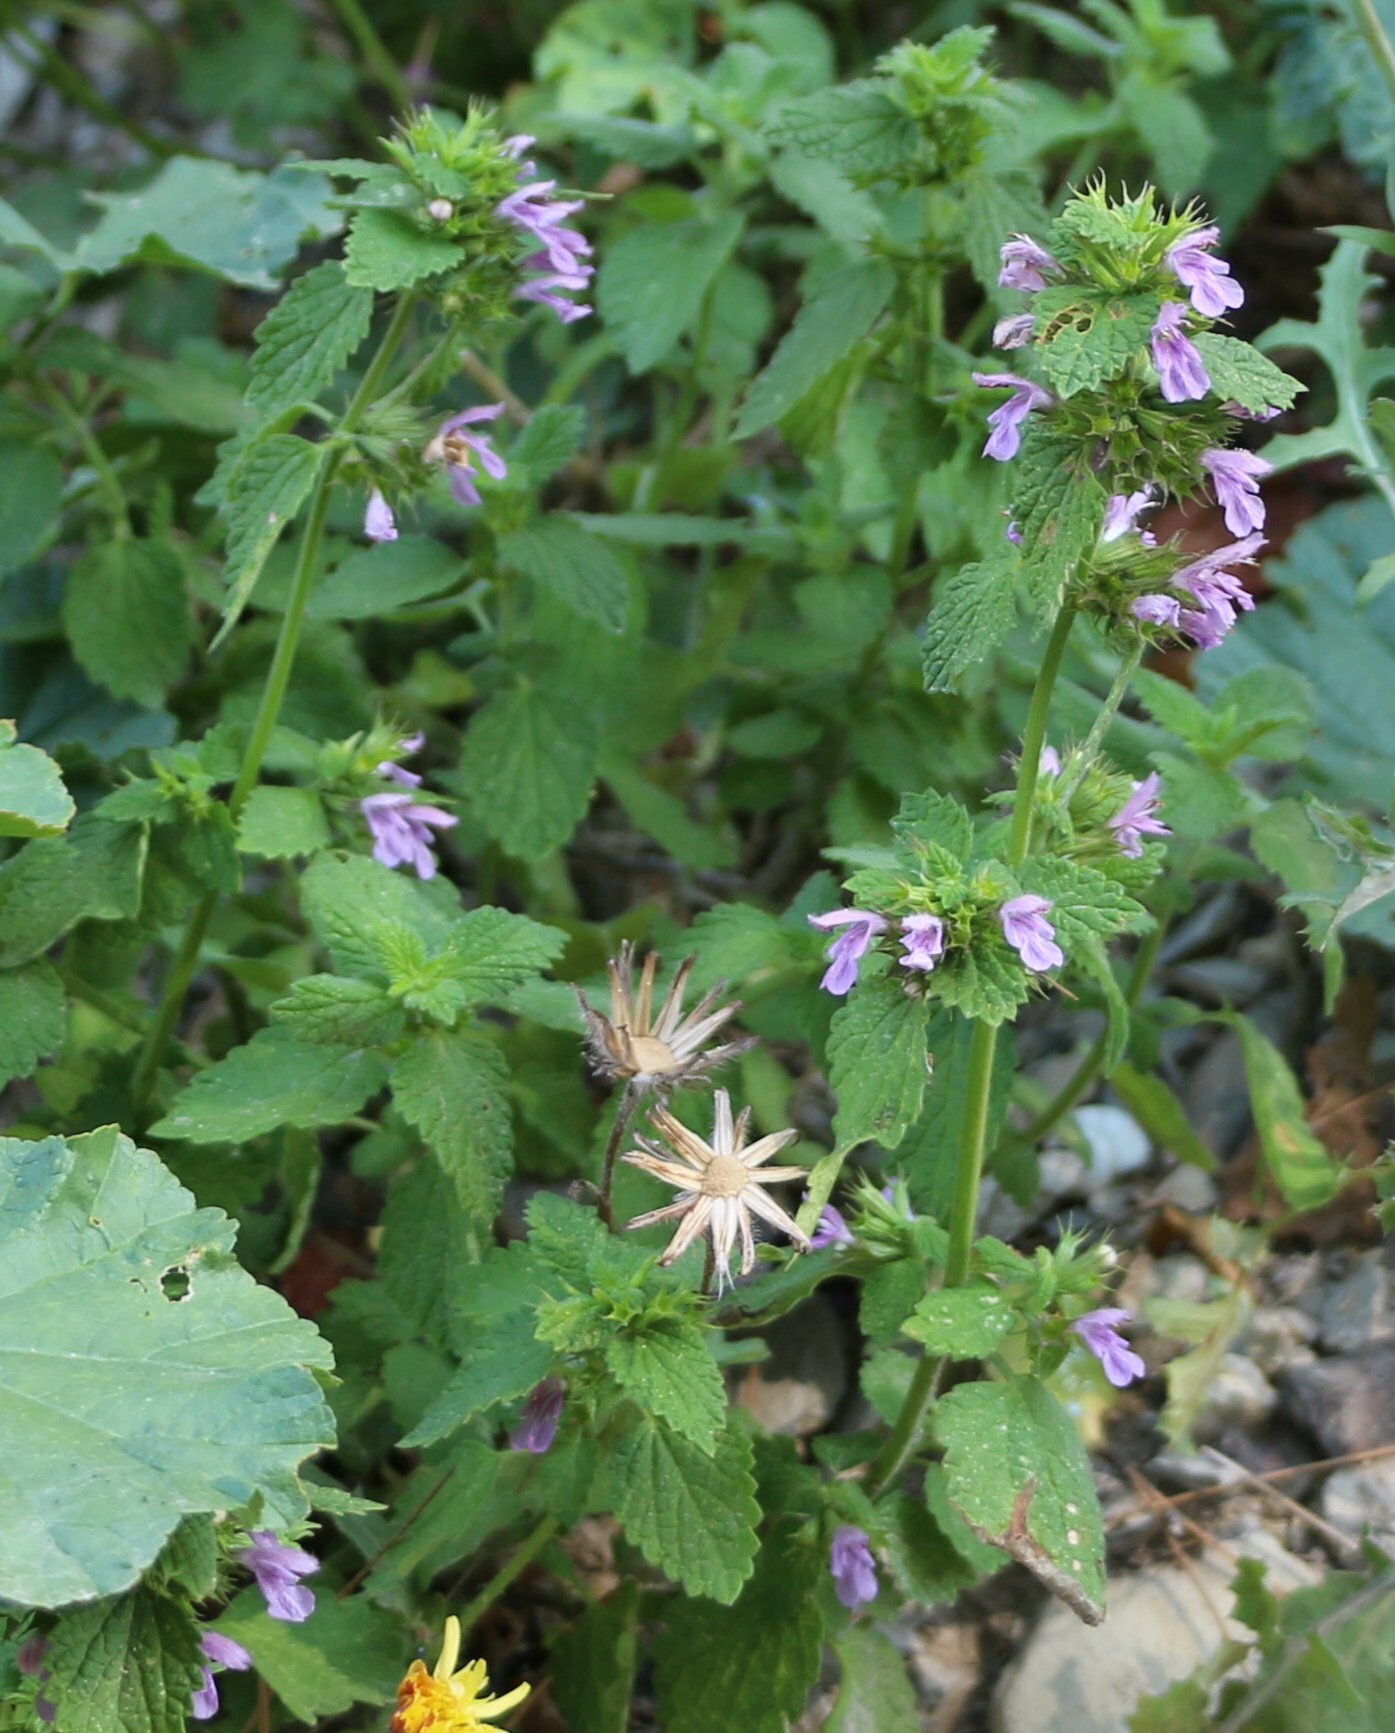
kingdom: Plantae
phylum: Tracheophyta
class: Magnoliopsida
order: Lamiales
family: Lamiaceae
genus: Ballota
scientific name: Ballota nigra
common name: Black horehound
